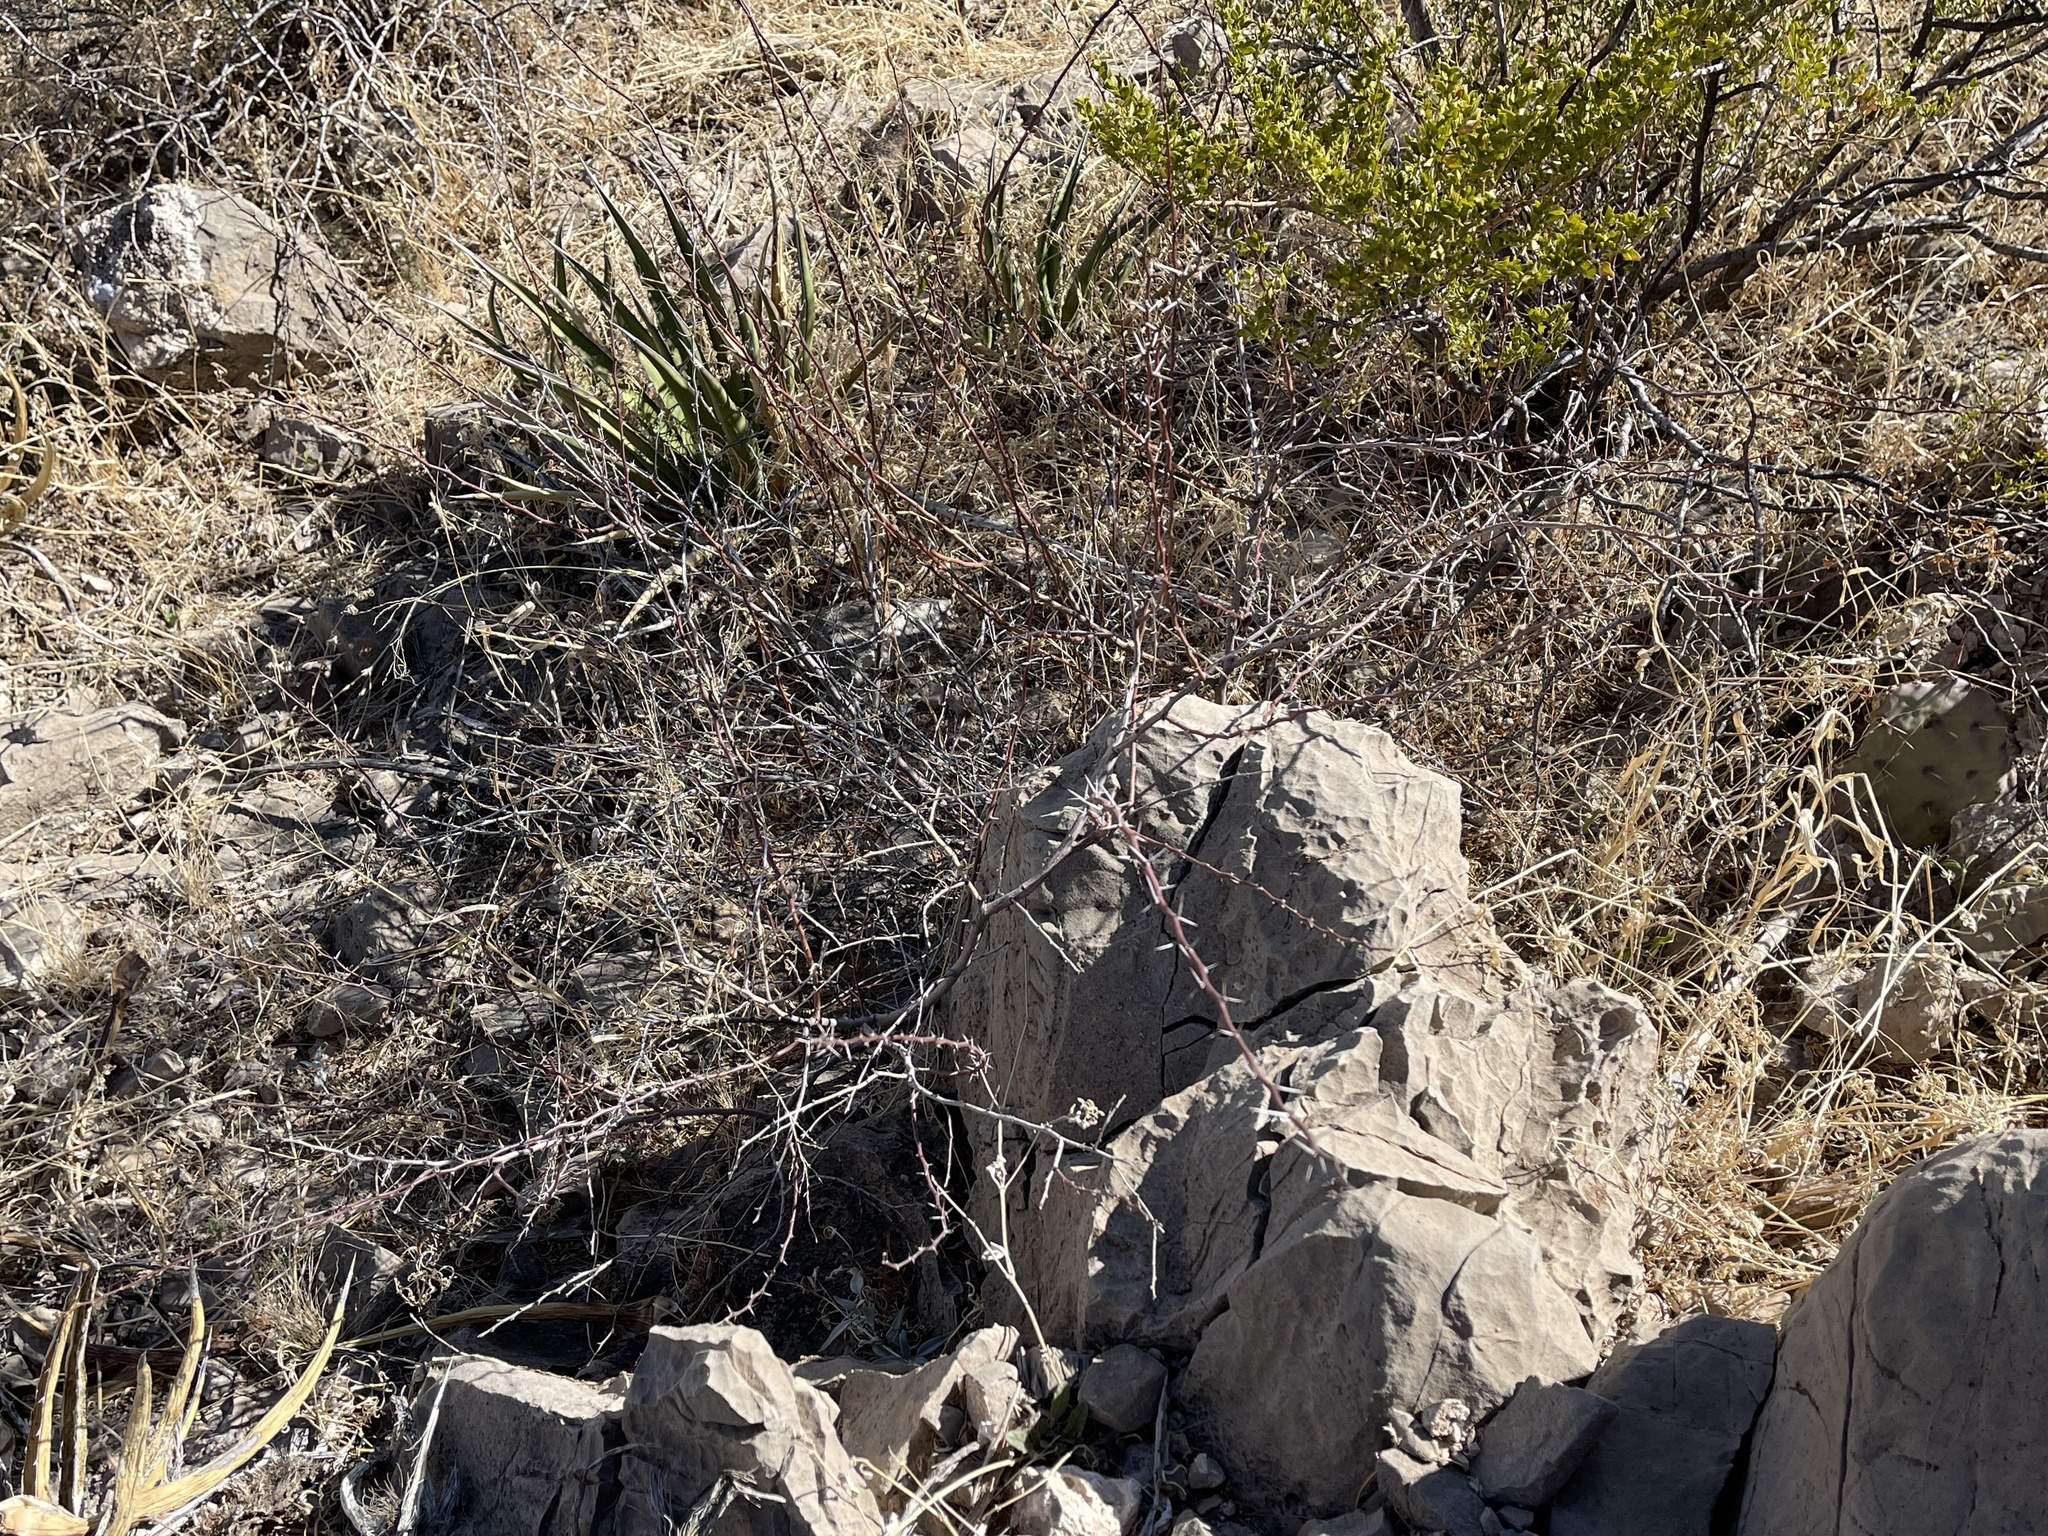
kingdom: Plantae
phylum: Tracheophyta
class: Magnoliopsida
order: Fabales
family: Fabaceae
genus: Vachellia
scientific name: Vachellia constricta
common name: Mescat acacia
